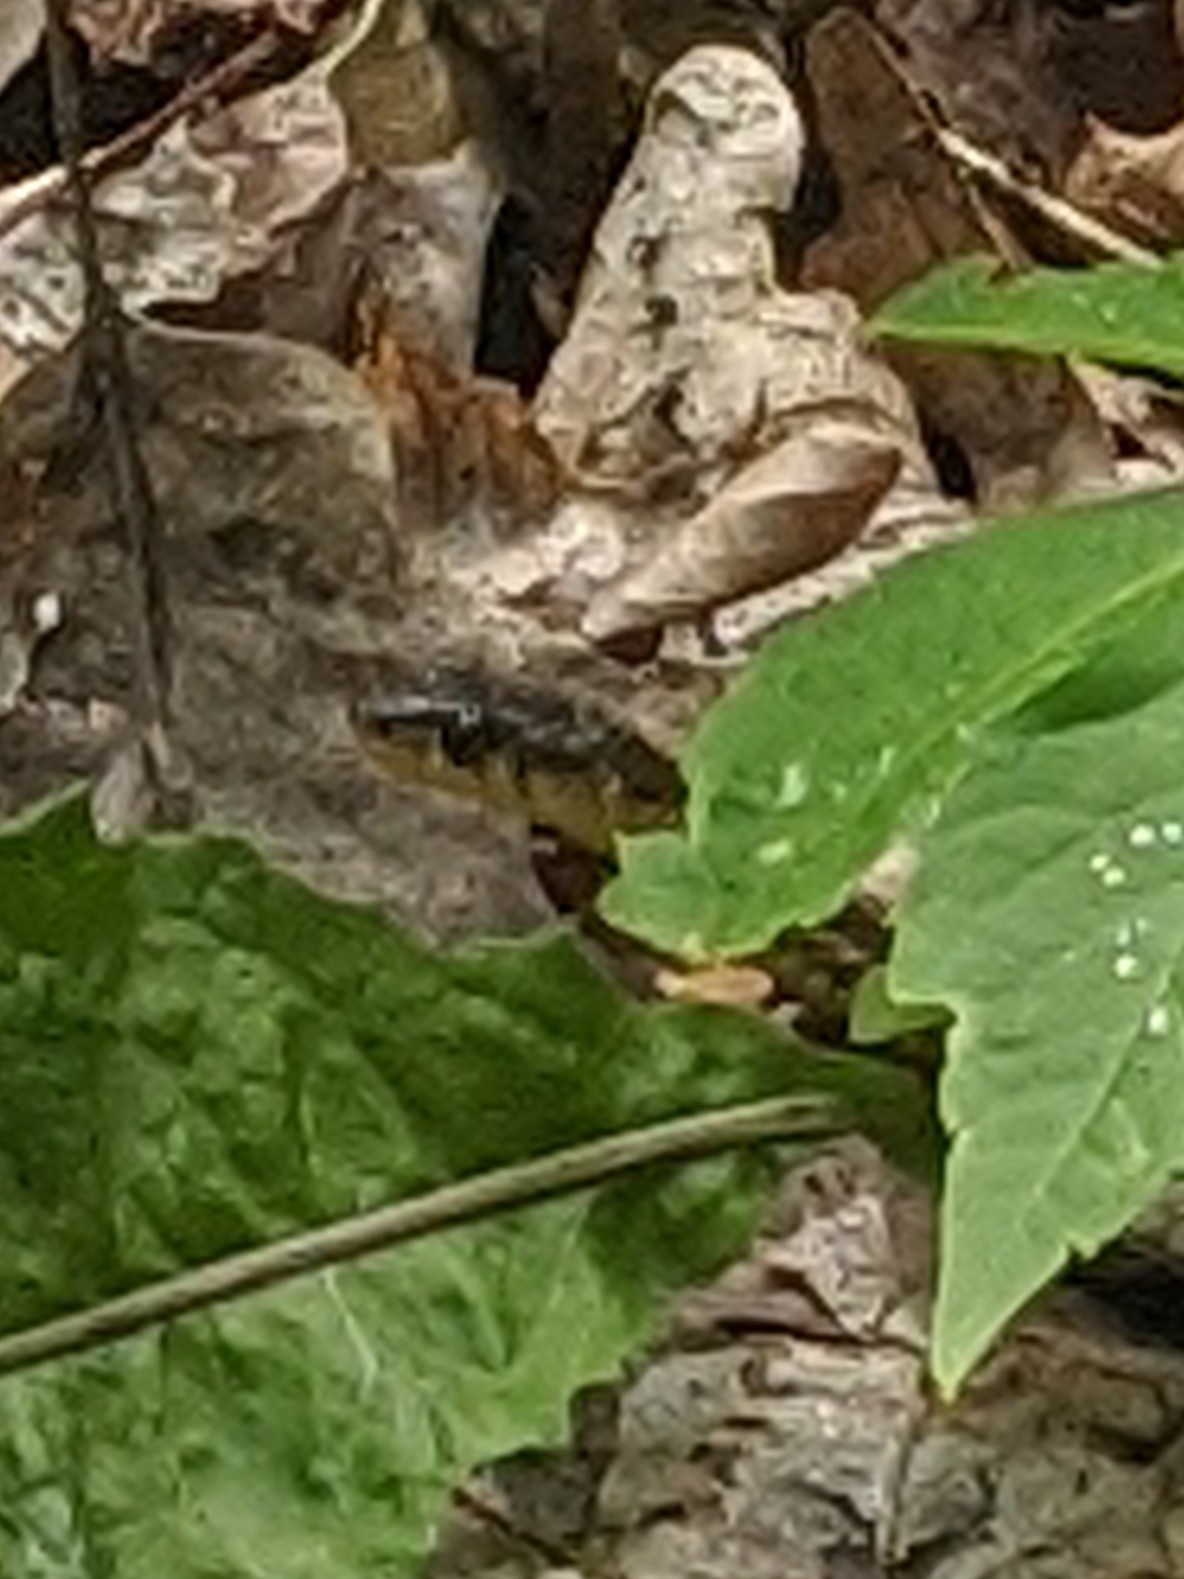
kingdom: Animalia
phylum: Chordata
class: Squamata
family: Colubridae
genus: Thamnophis
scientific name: Thamnophis sirtalis
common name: Common garter snake
